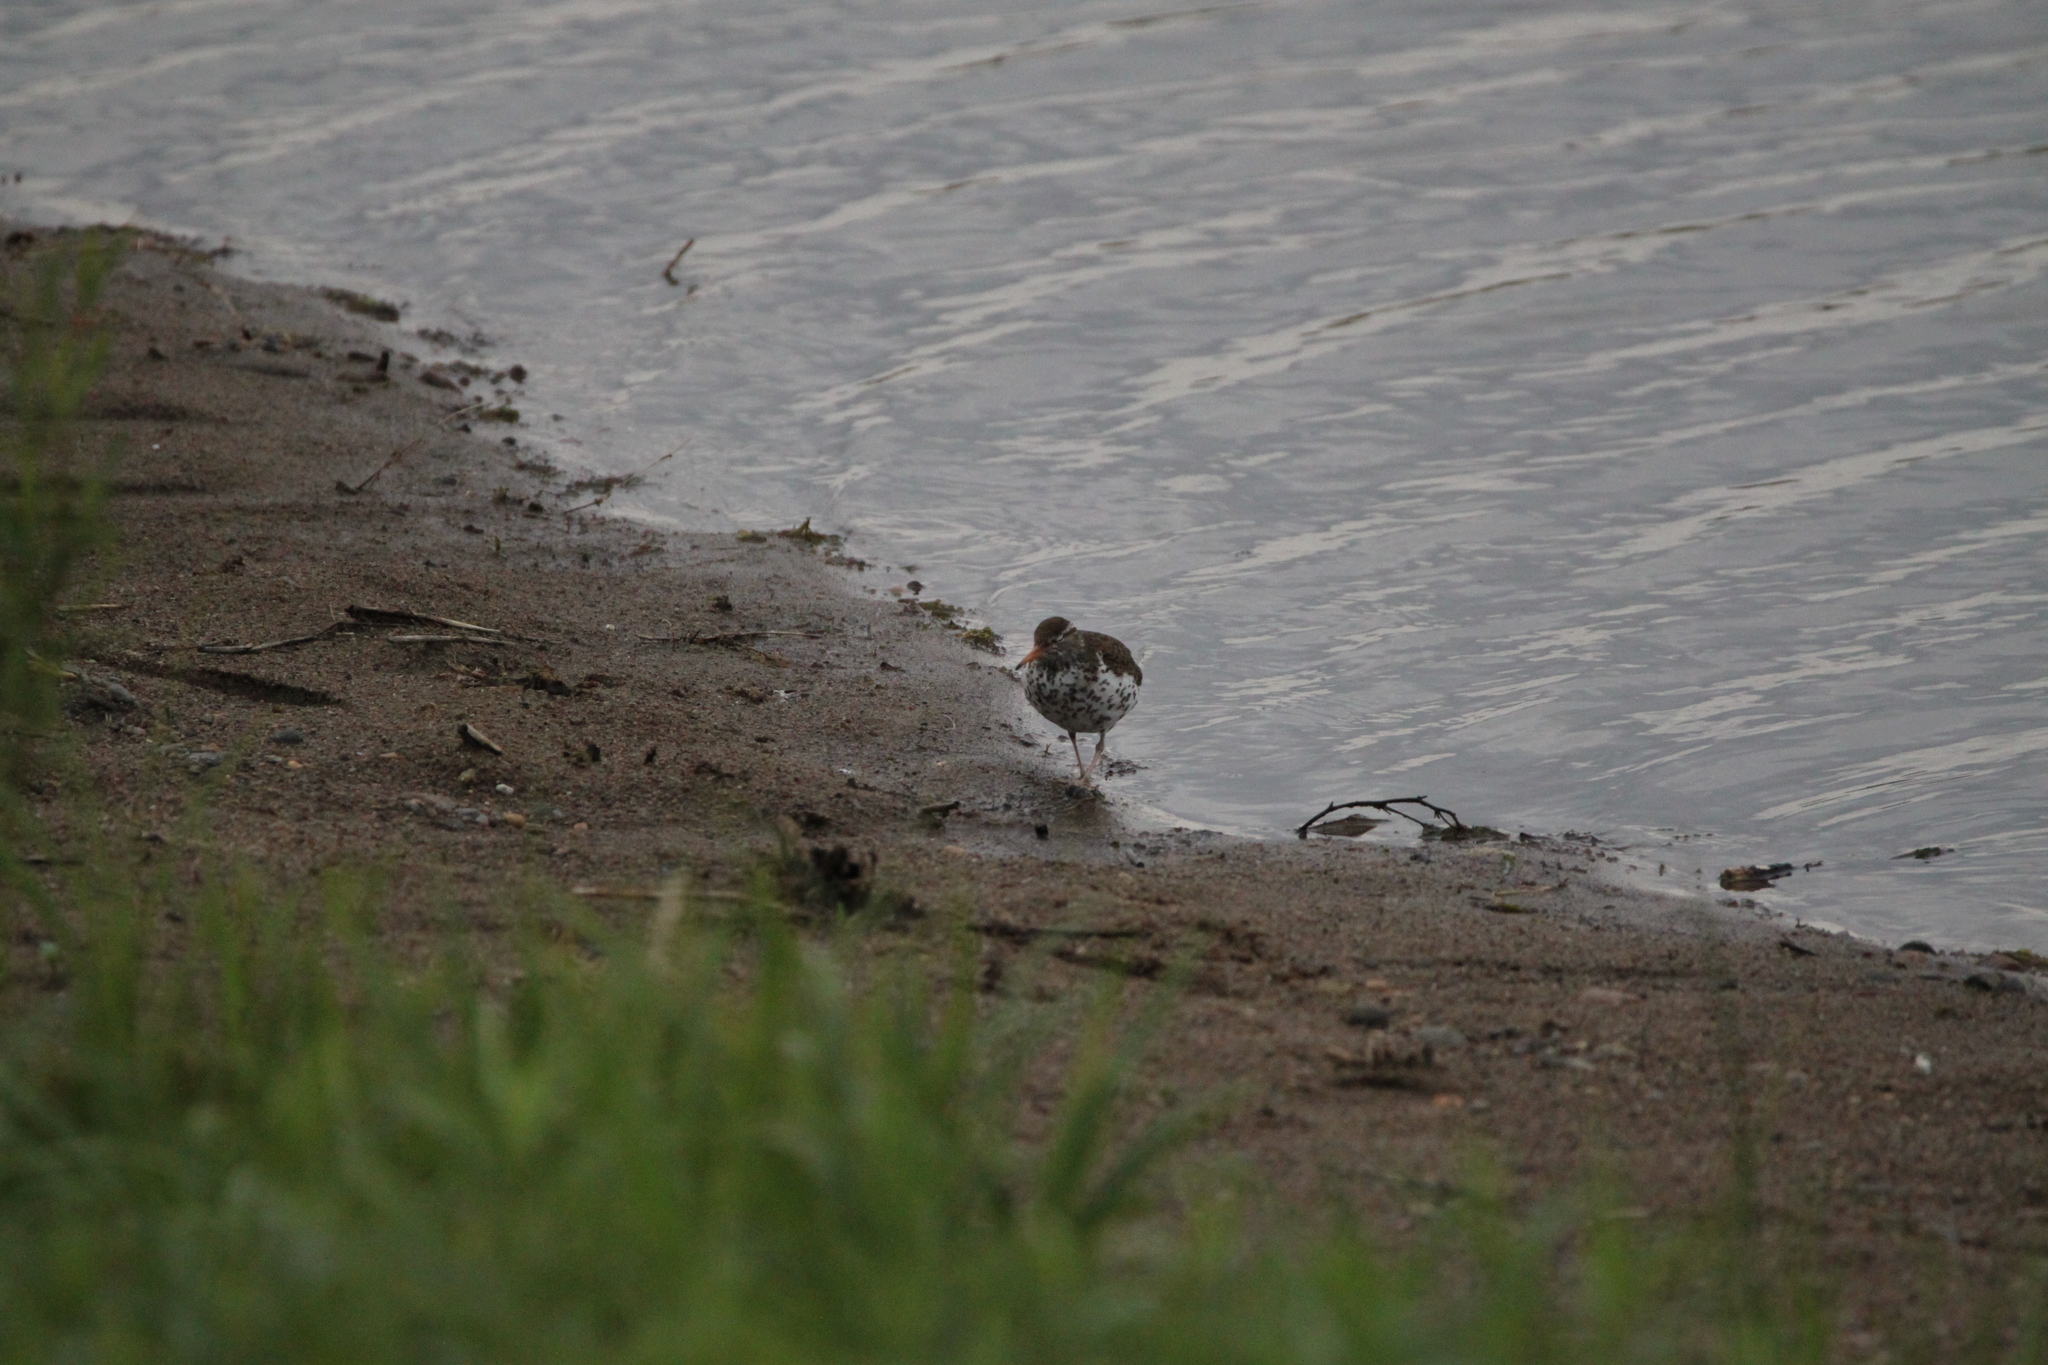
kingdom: Animalia
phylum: Chordata
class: Aves
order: Charadriiformes
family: Scolopacidae
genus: Actitis
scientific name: Actitis macularius
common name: Spotted sandpiper
